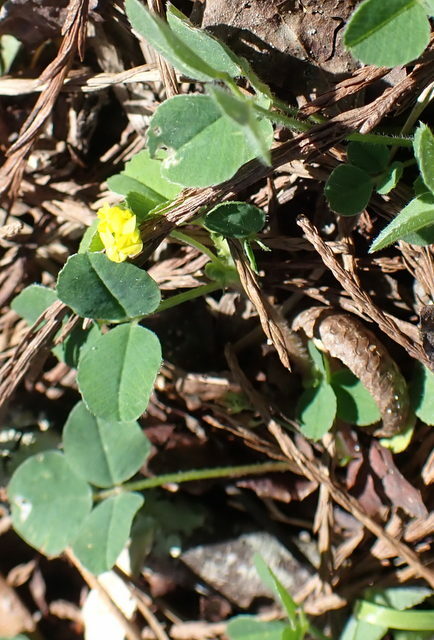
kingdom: Plantae
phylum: Tracheophyta
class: Magnoliopsida
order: Fabales
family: Fabaceae
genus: Medicago
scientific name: Medicago lupulina
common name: Black medick
